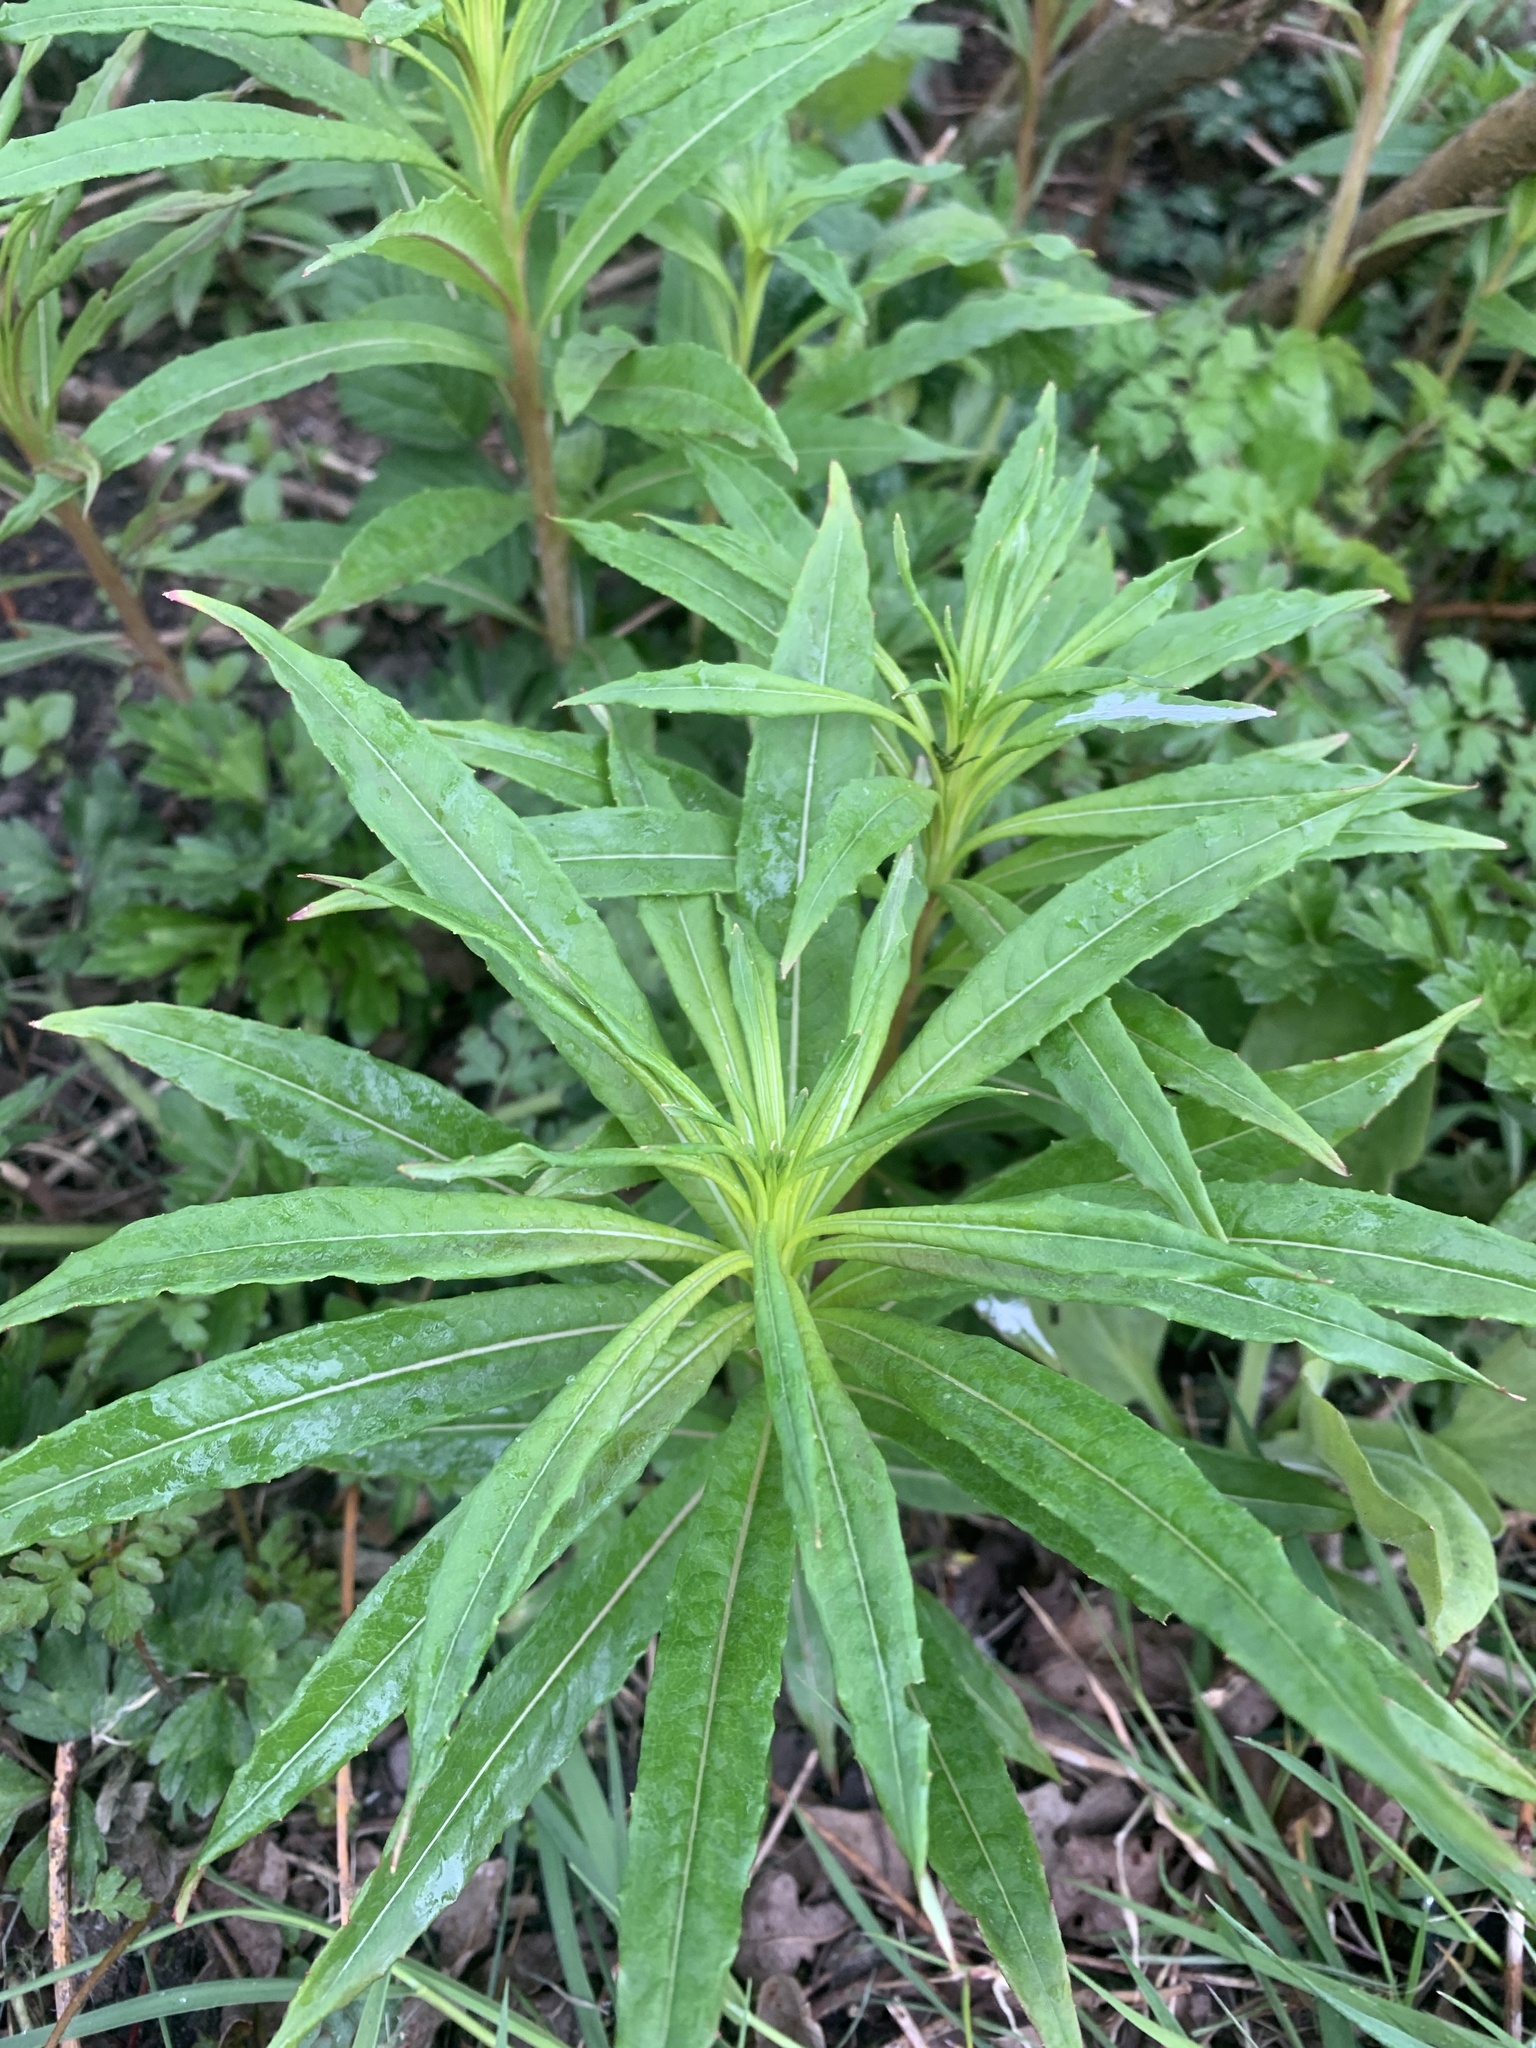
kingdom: Plantae
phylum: Tracheophyta
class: Magnoliopsida
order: Myrtales
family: Onagraceae
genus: Chamaenerion
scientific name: Chamaenerion angustifolium
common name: Fireweed
